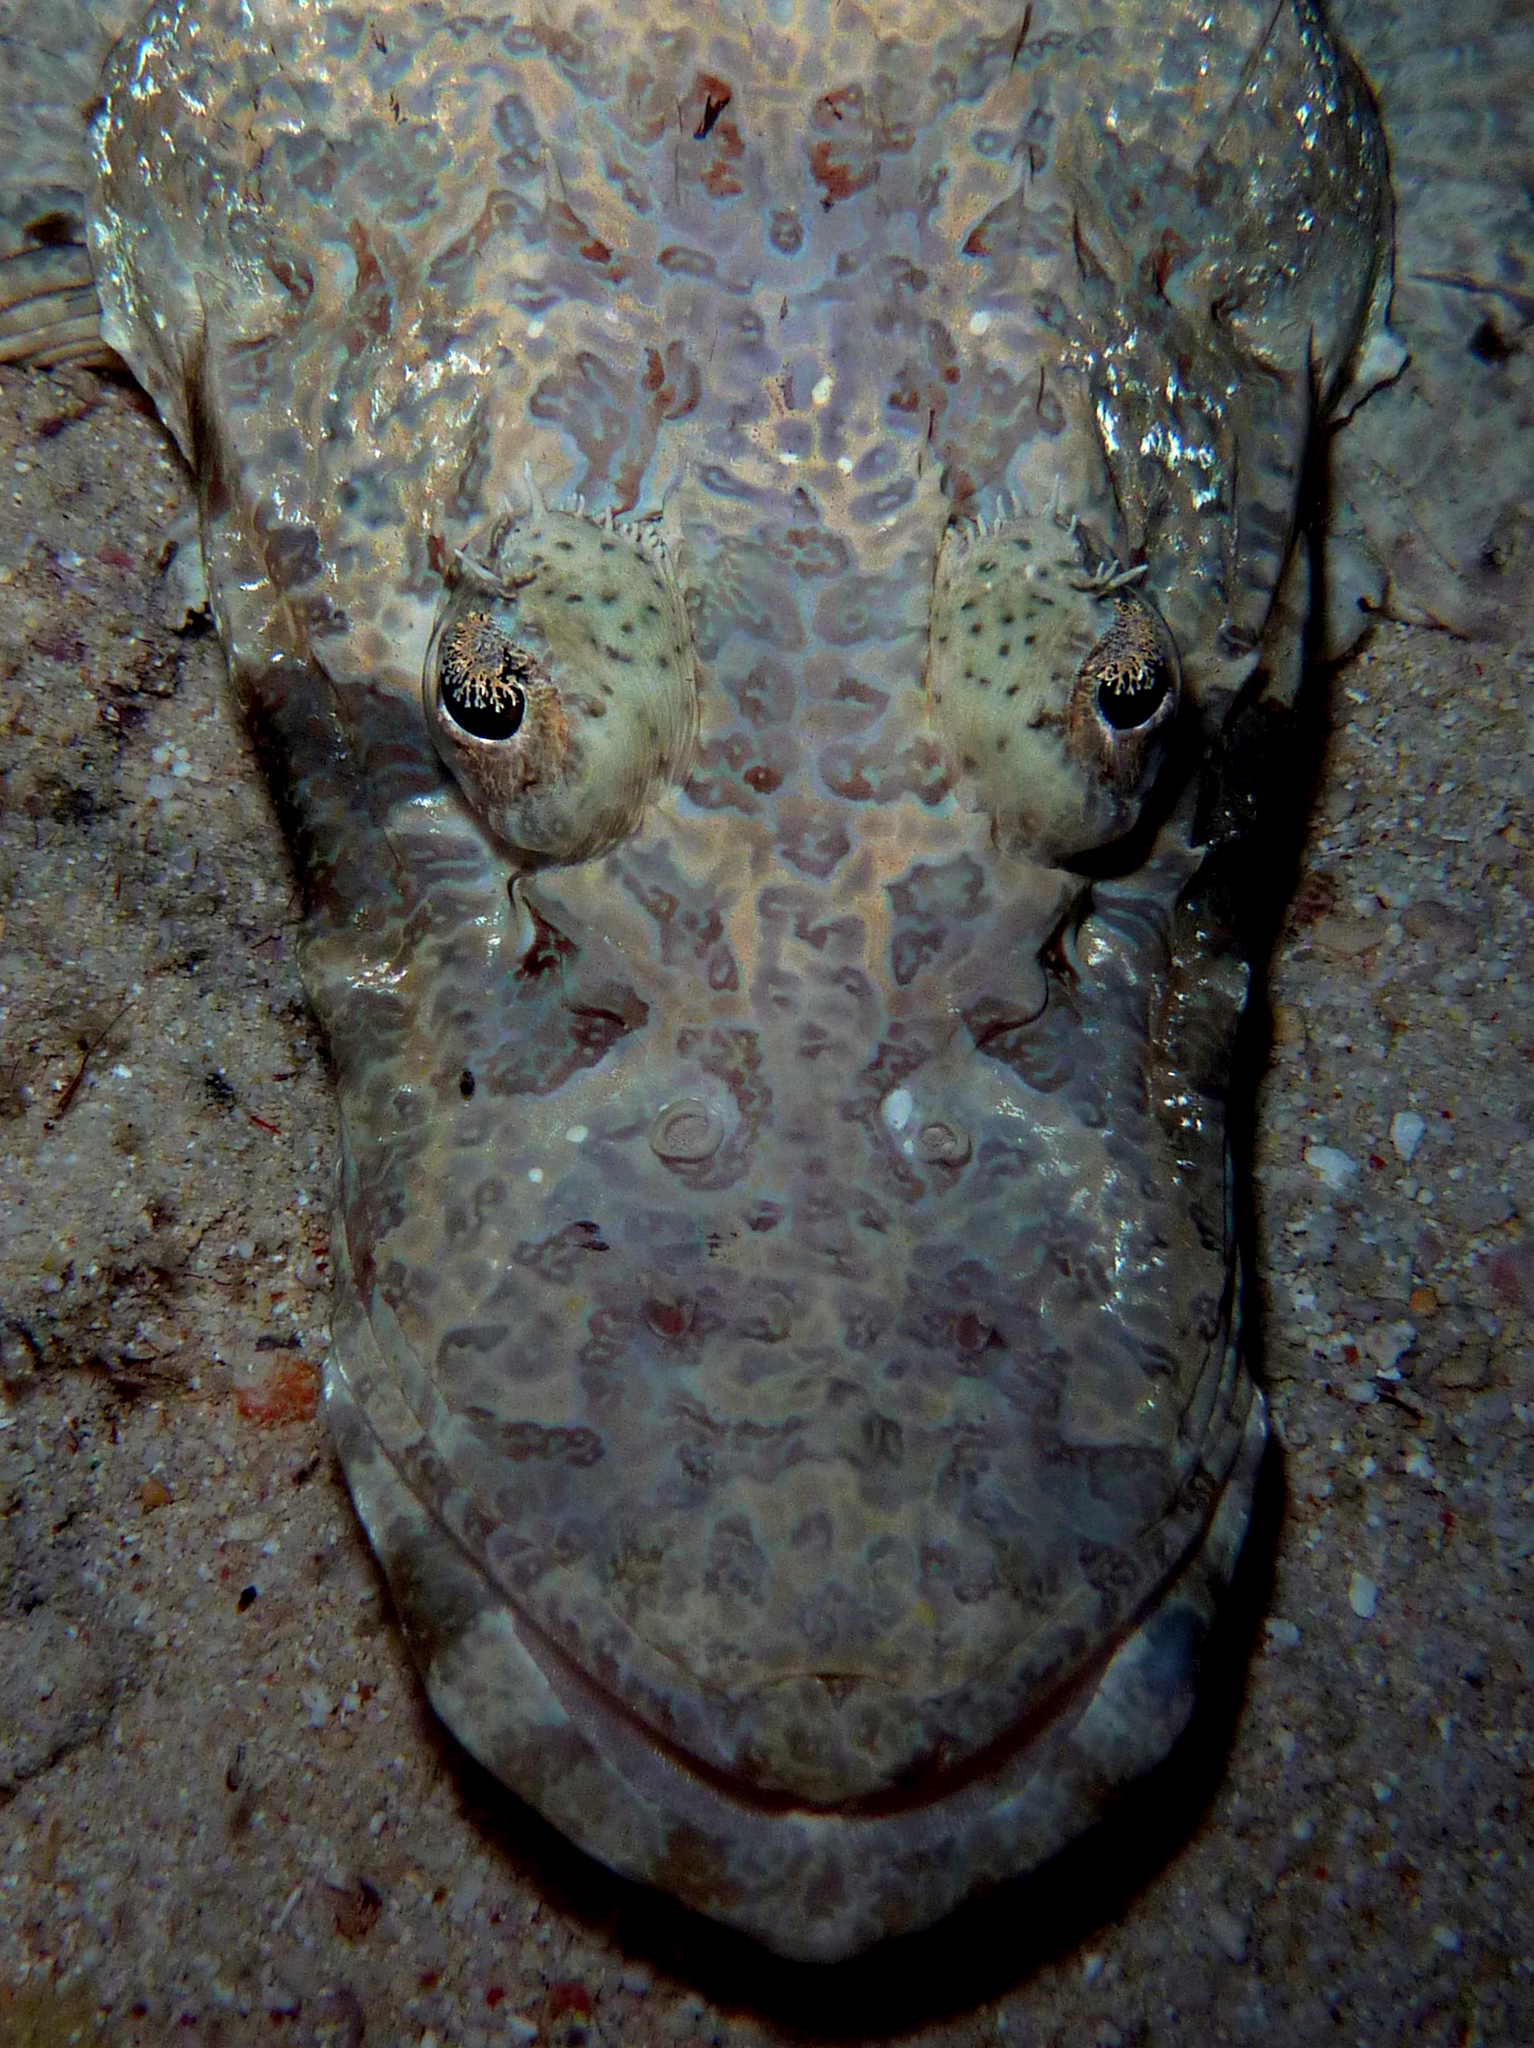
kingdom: Animalia
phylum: Chordata
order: Scorpaeniformes
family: Platycephalidae
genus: Cymbacephalus
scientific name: Cymbacephalus beauforti
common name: Crocodile fish
